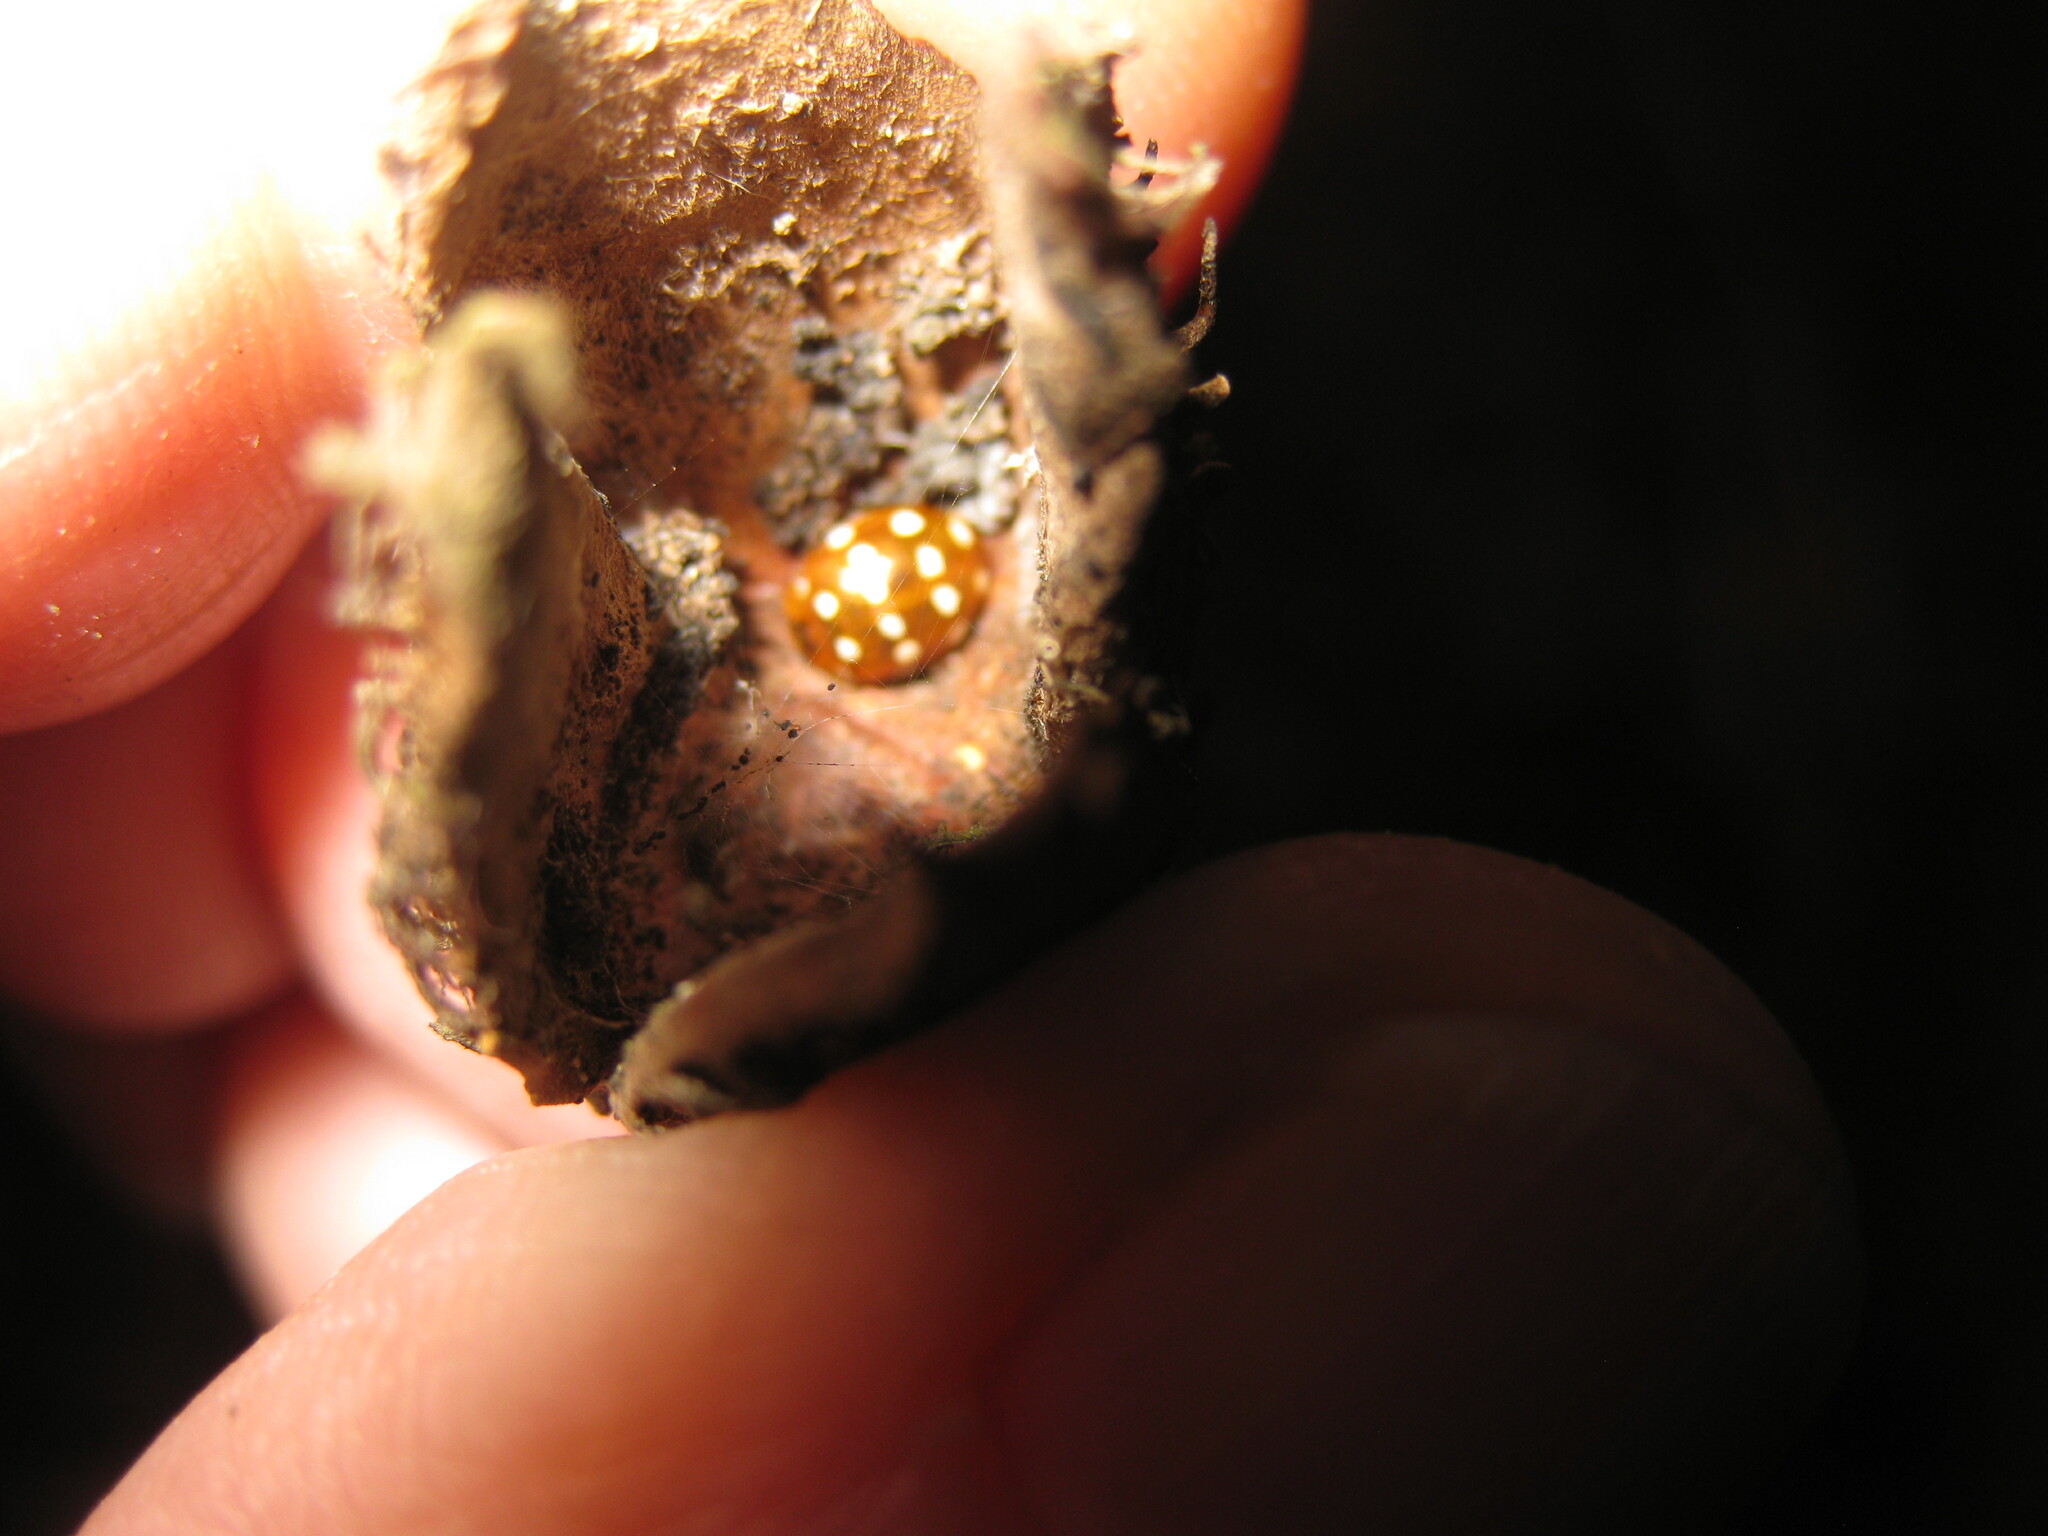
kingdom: Animalia
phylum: Arthropoda
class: Insecta
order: Coleoptera
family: Coccinellidae
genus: Calvia
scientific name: Calvia quatuordecimguttata
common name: Cream-spot ladybird
